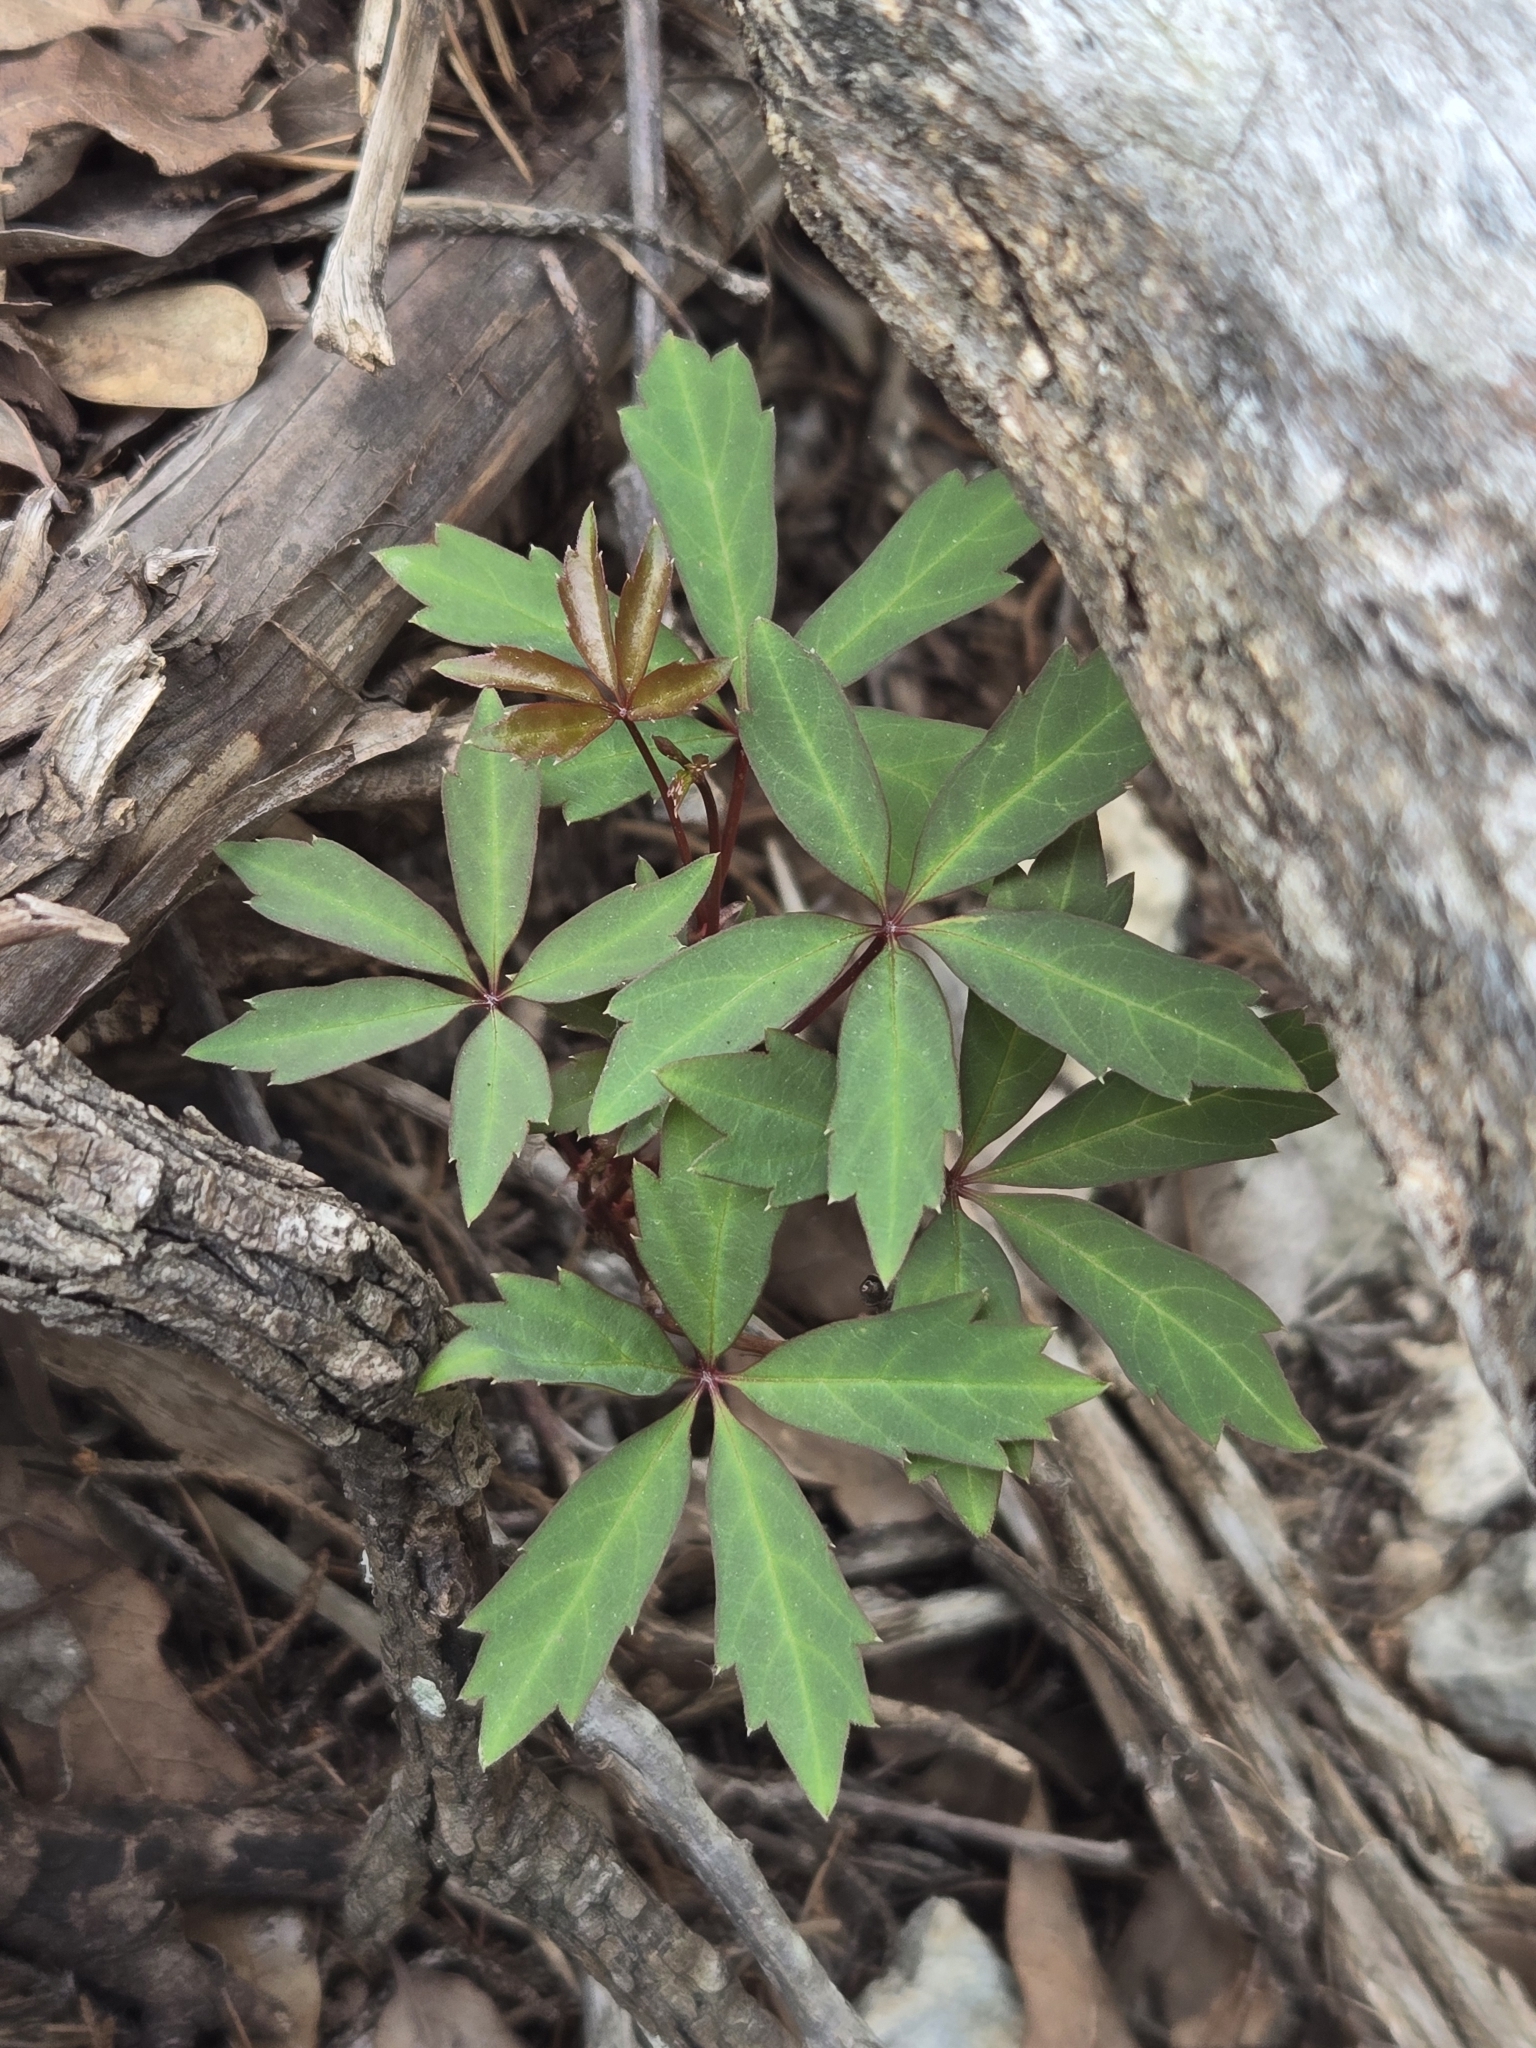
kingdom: Plantae
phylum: Tracheophyta
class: Magnoliopsida
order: Vitales
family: Vitaceae
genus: Parthenocissus
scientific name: Parthenocissus quinquefolia
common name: Virginia-creeper
